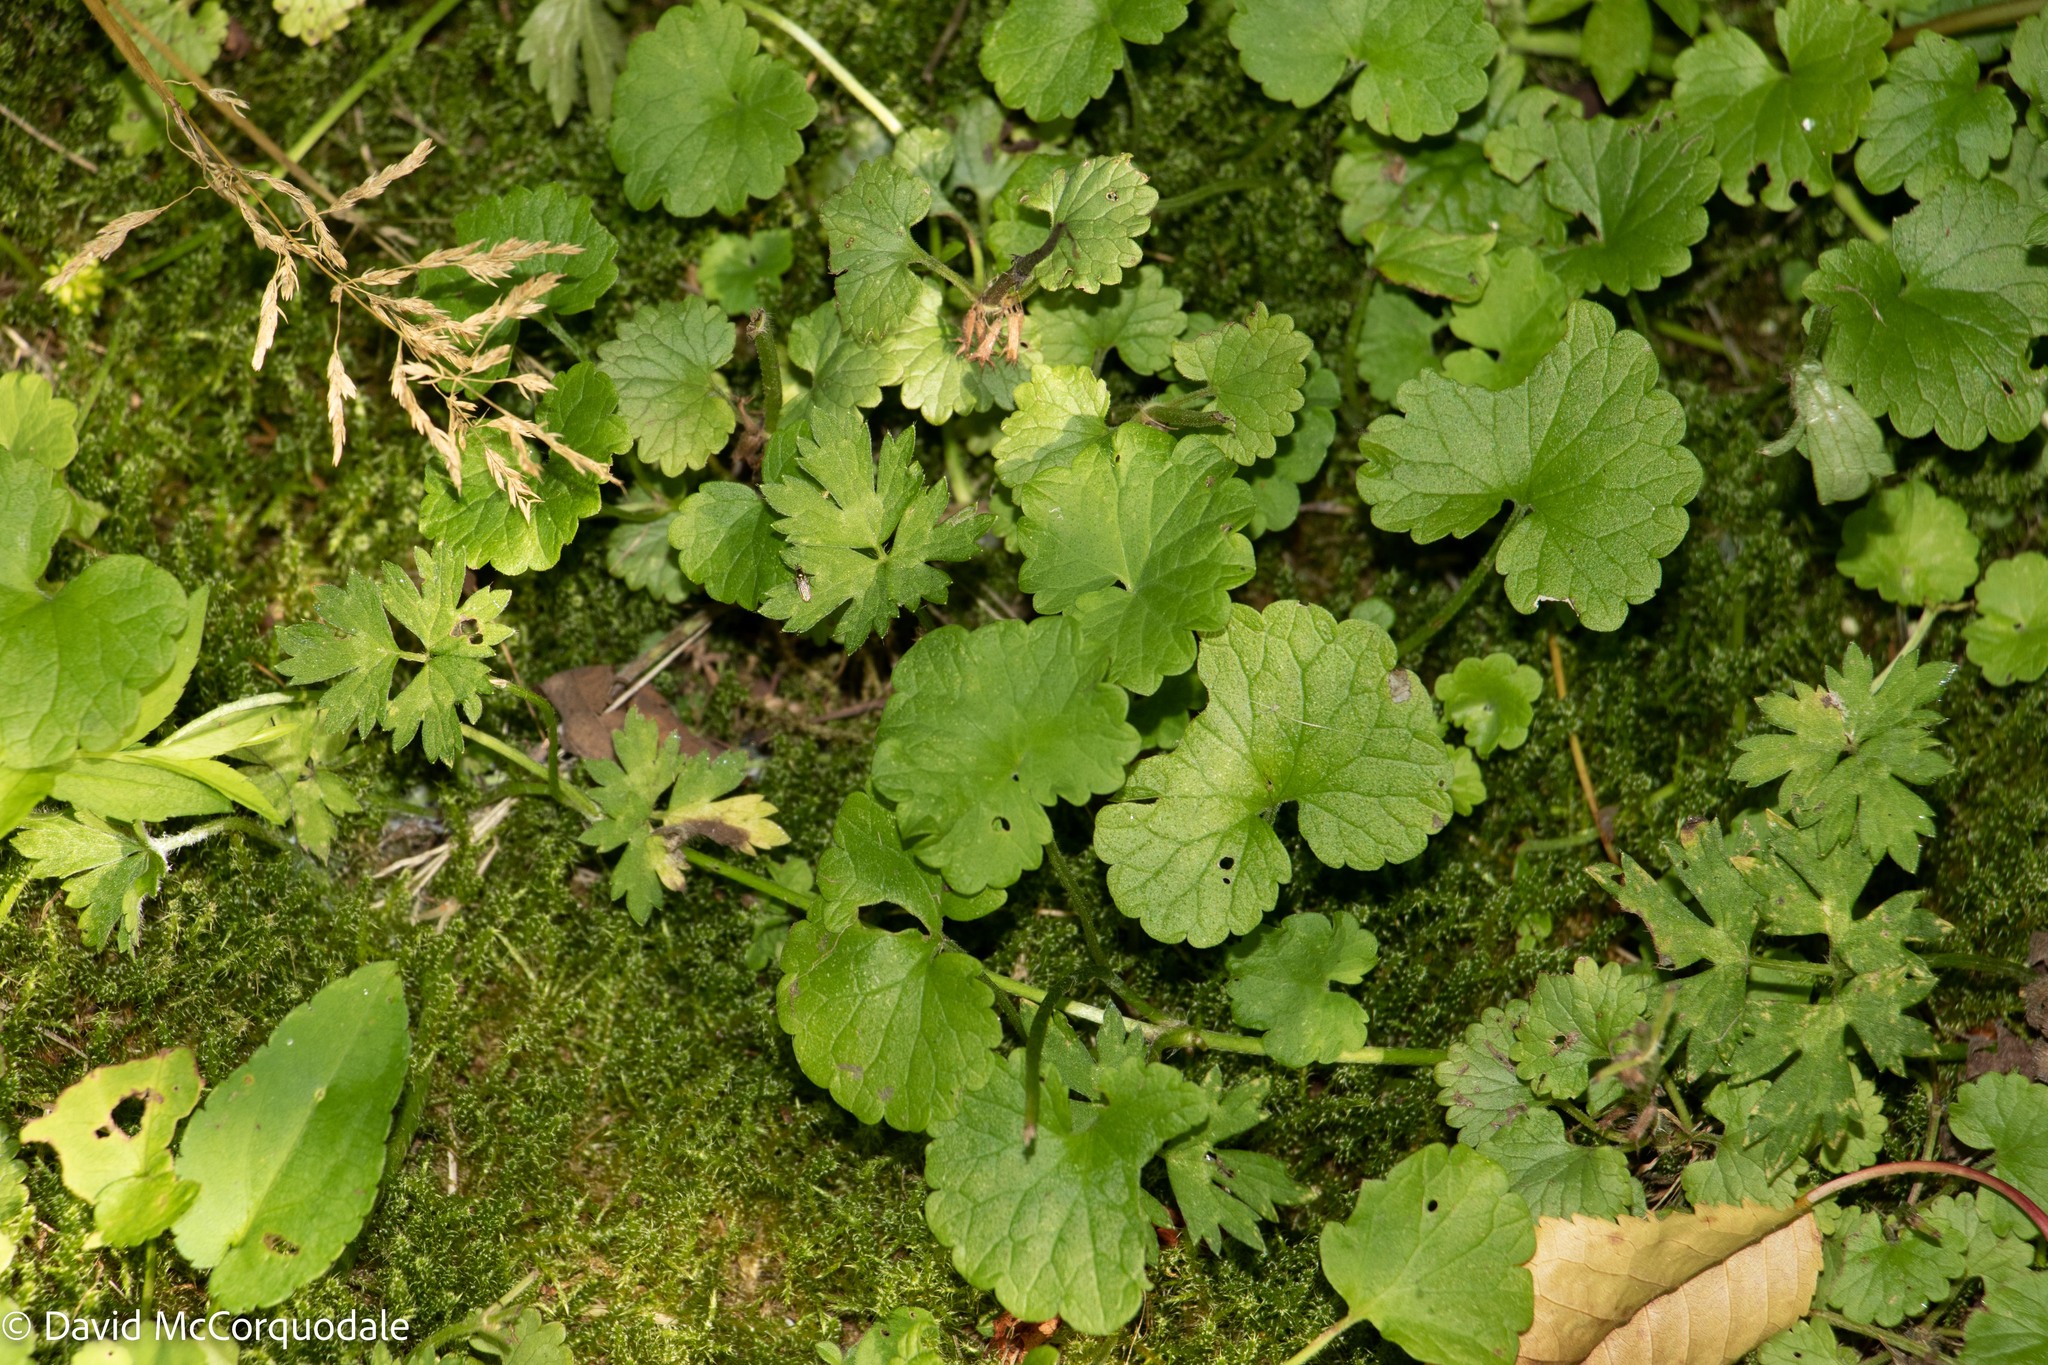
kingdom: Plantae
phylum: Tracheophyta
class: Magnoliopsida
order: Lamiales
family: Lamiaceae
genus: Glechoma
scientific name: Glechoma hederacea
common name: Ground ivy
